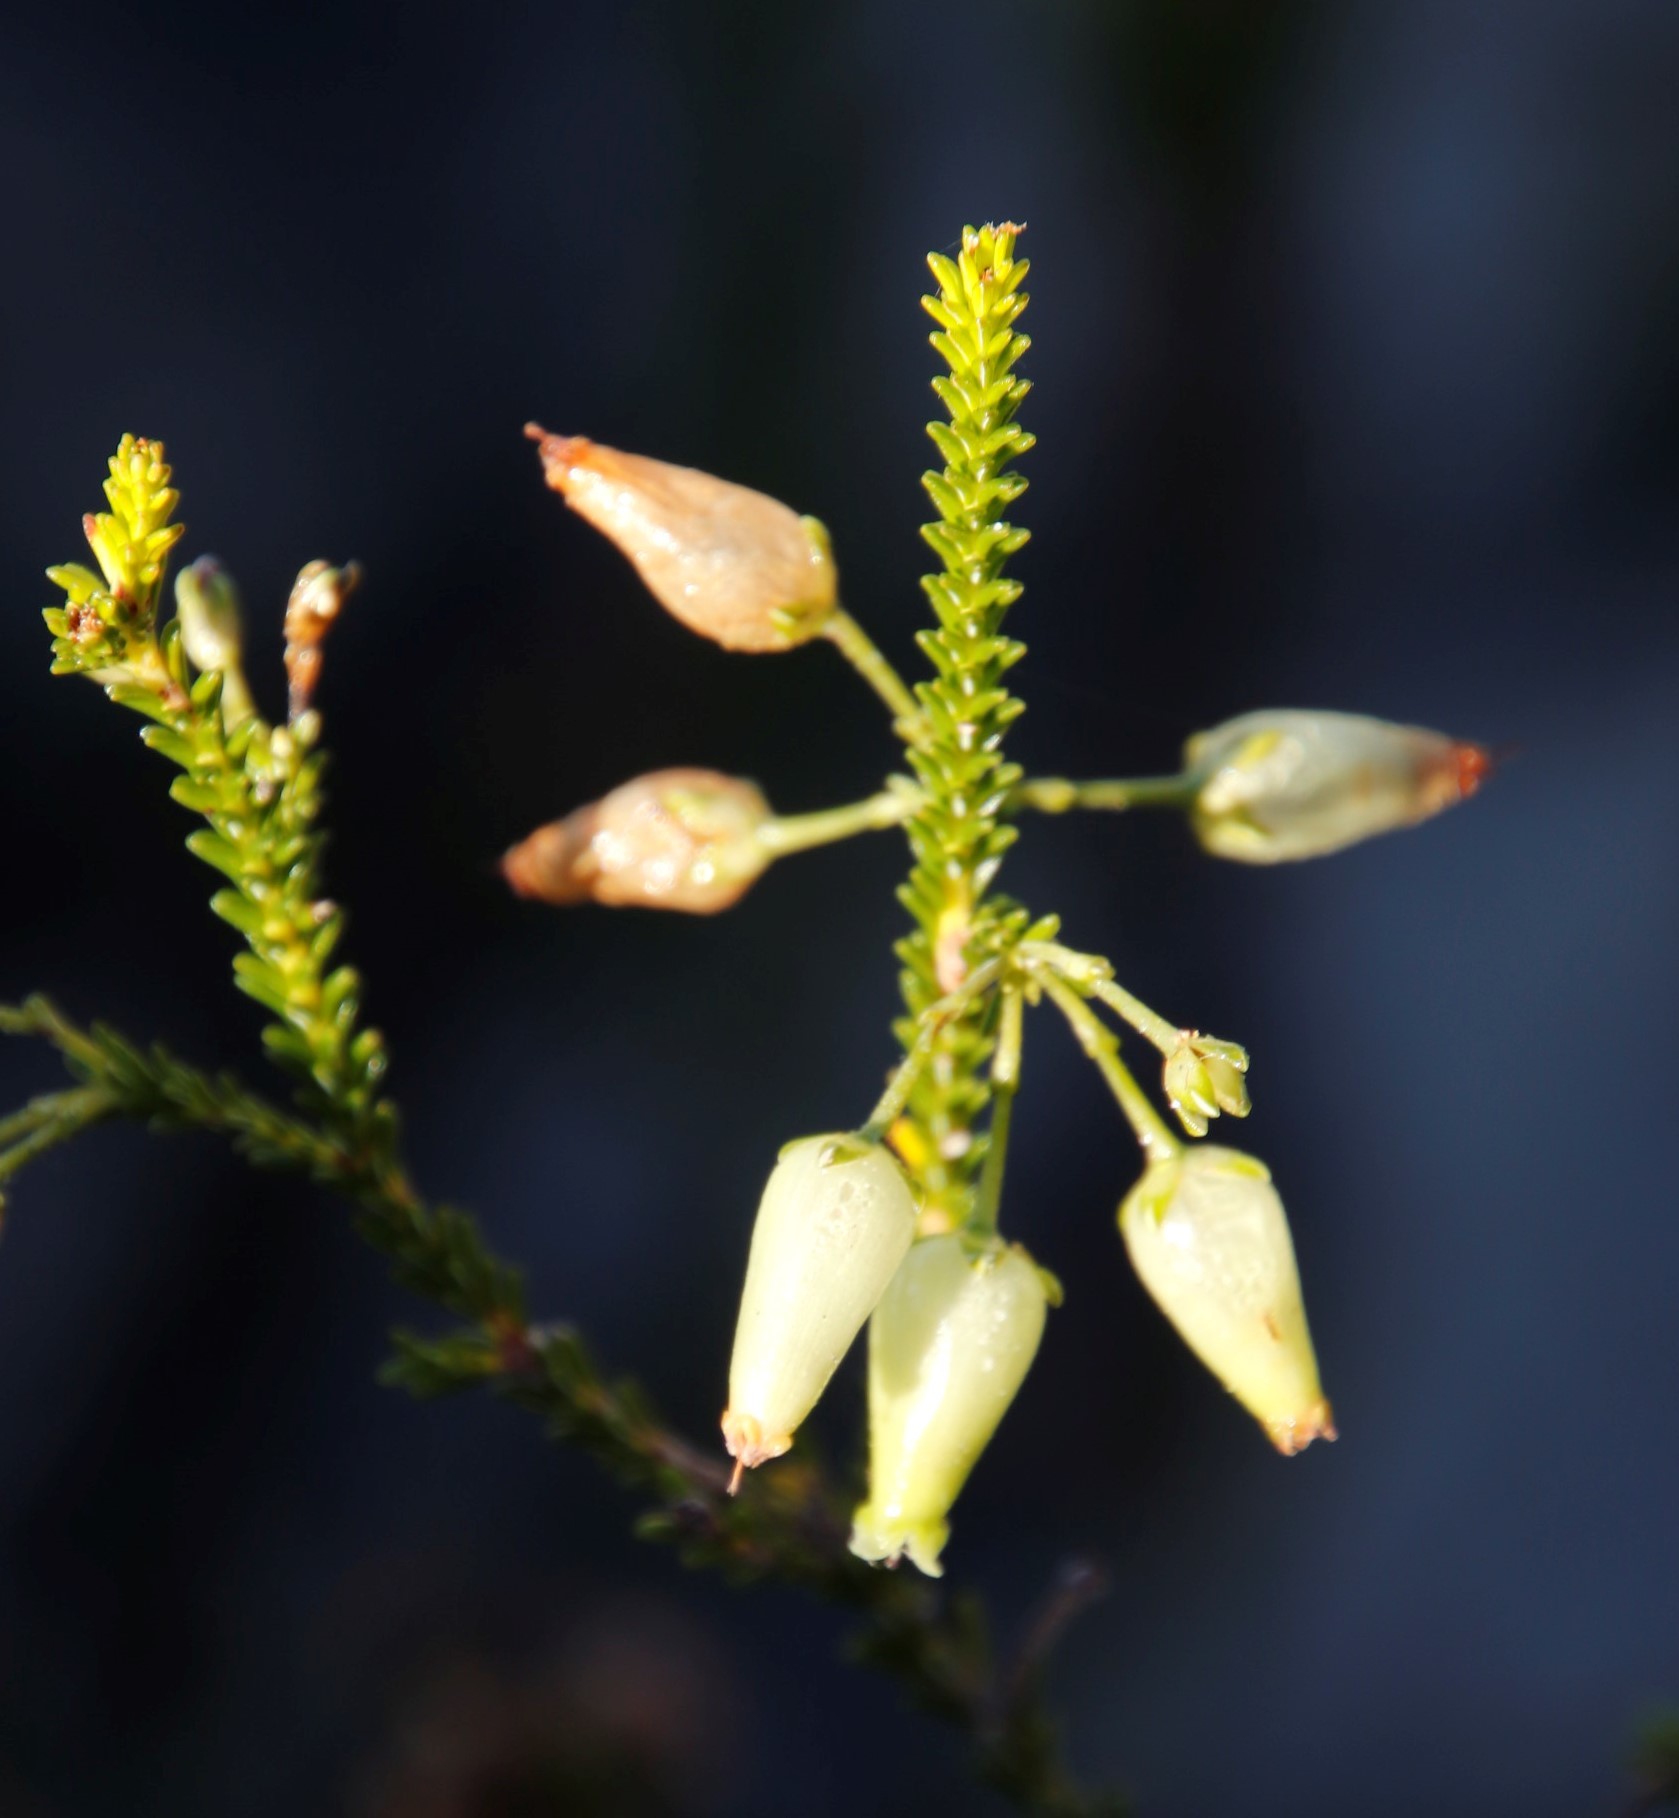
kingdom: Plantae
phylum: Tracheophyta
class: Magnoliopsida
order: Ericales
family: Ericaceae
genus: Erica
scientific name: Erica urna-viridis
